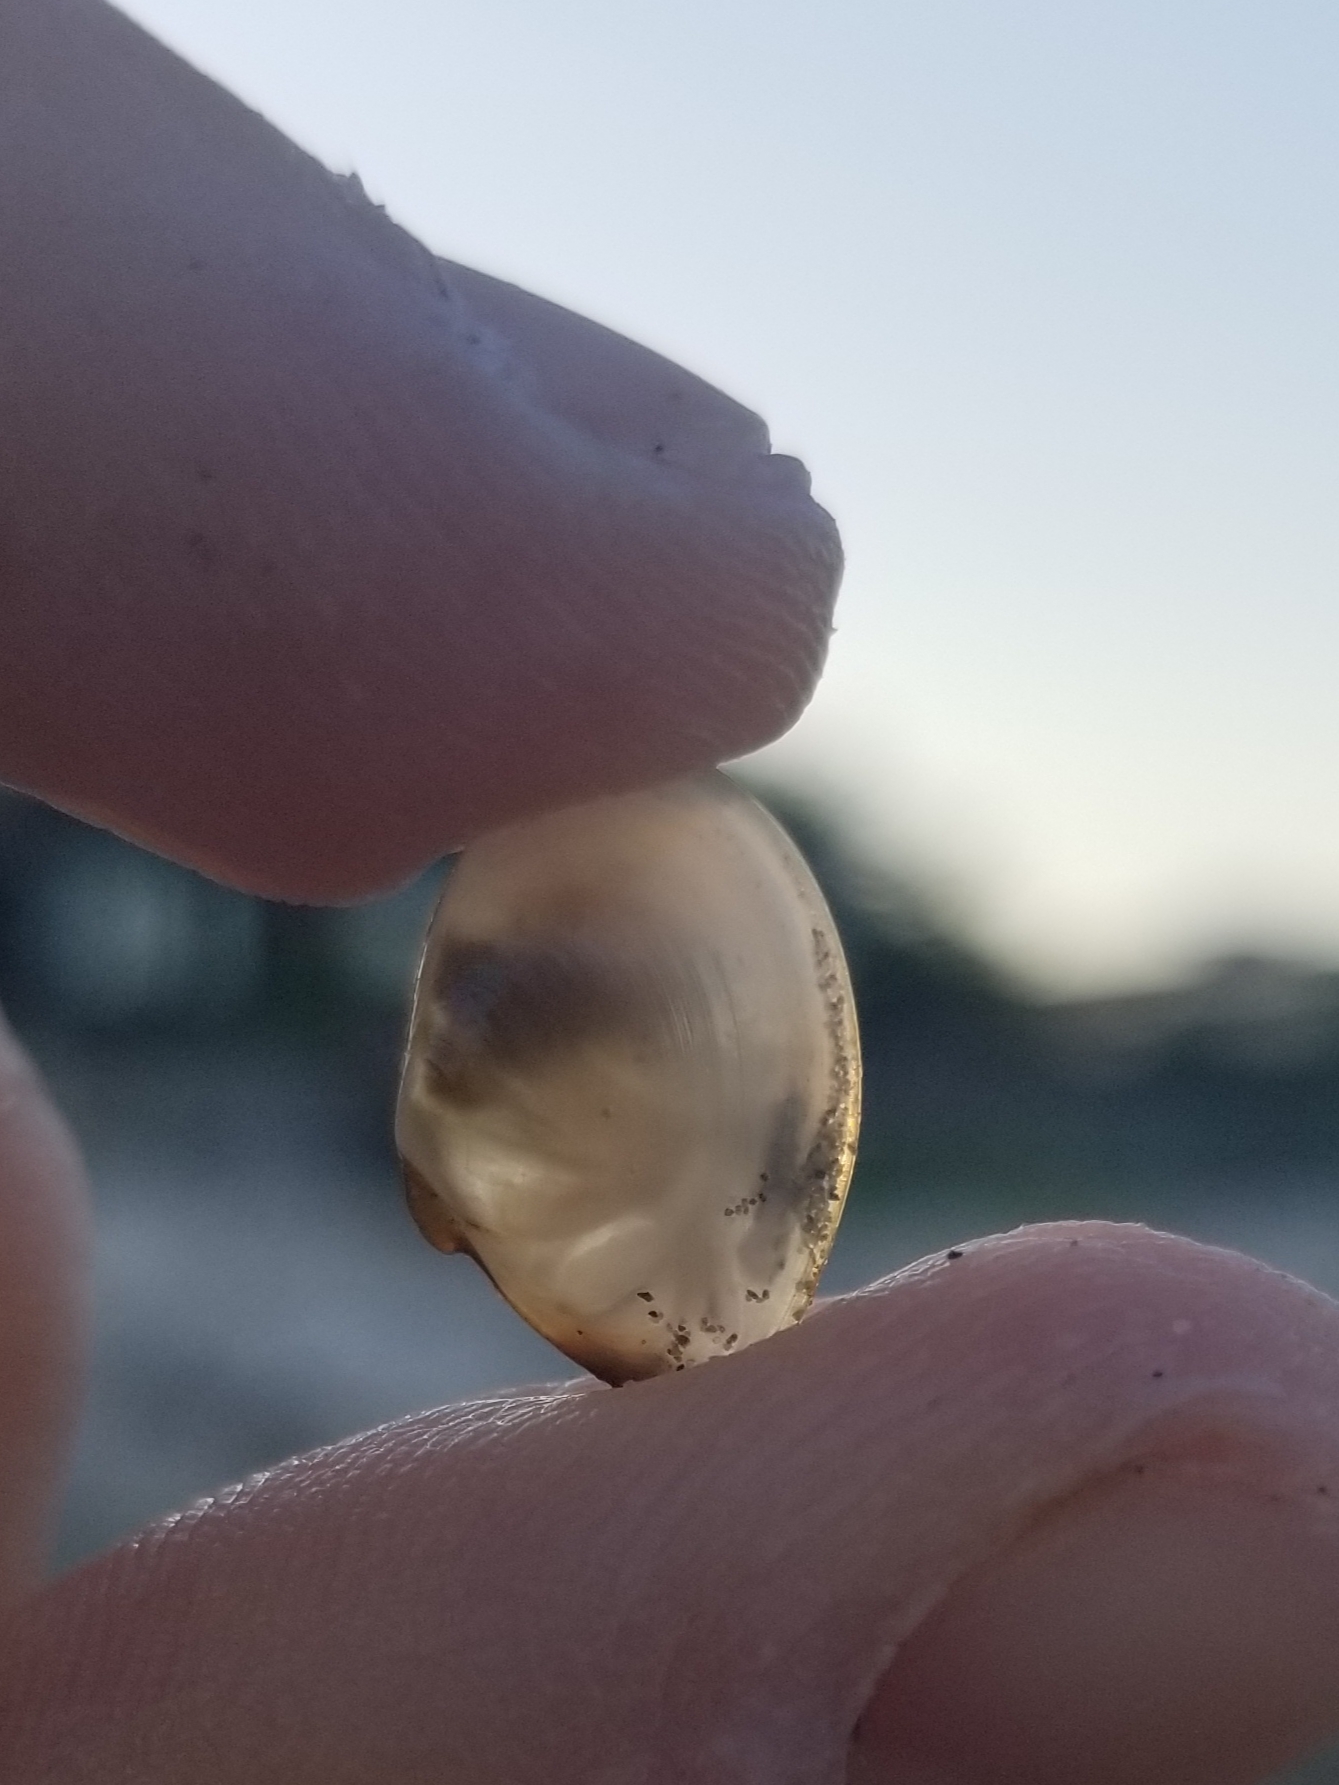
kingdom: Animalia
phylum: Mollusca
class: Bivalvia
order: Cardiida
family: Tellinidae
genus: Macomangulus
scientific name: Macomangulus tenuis
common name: Thin tellin
